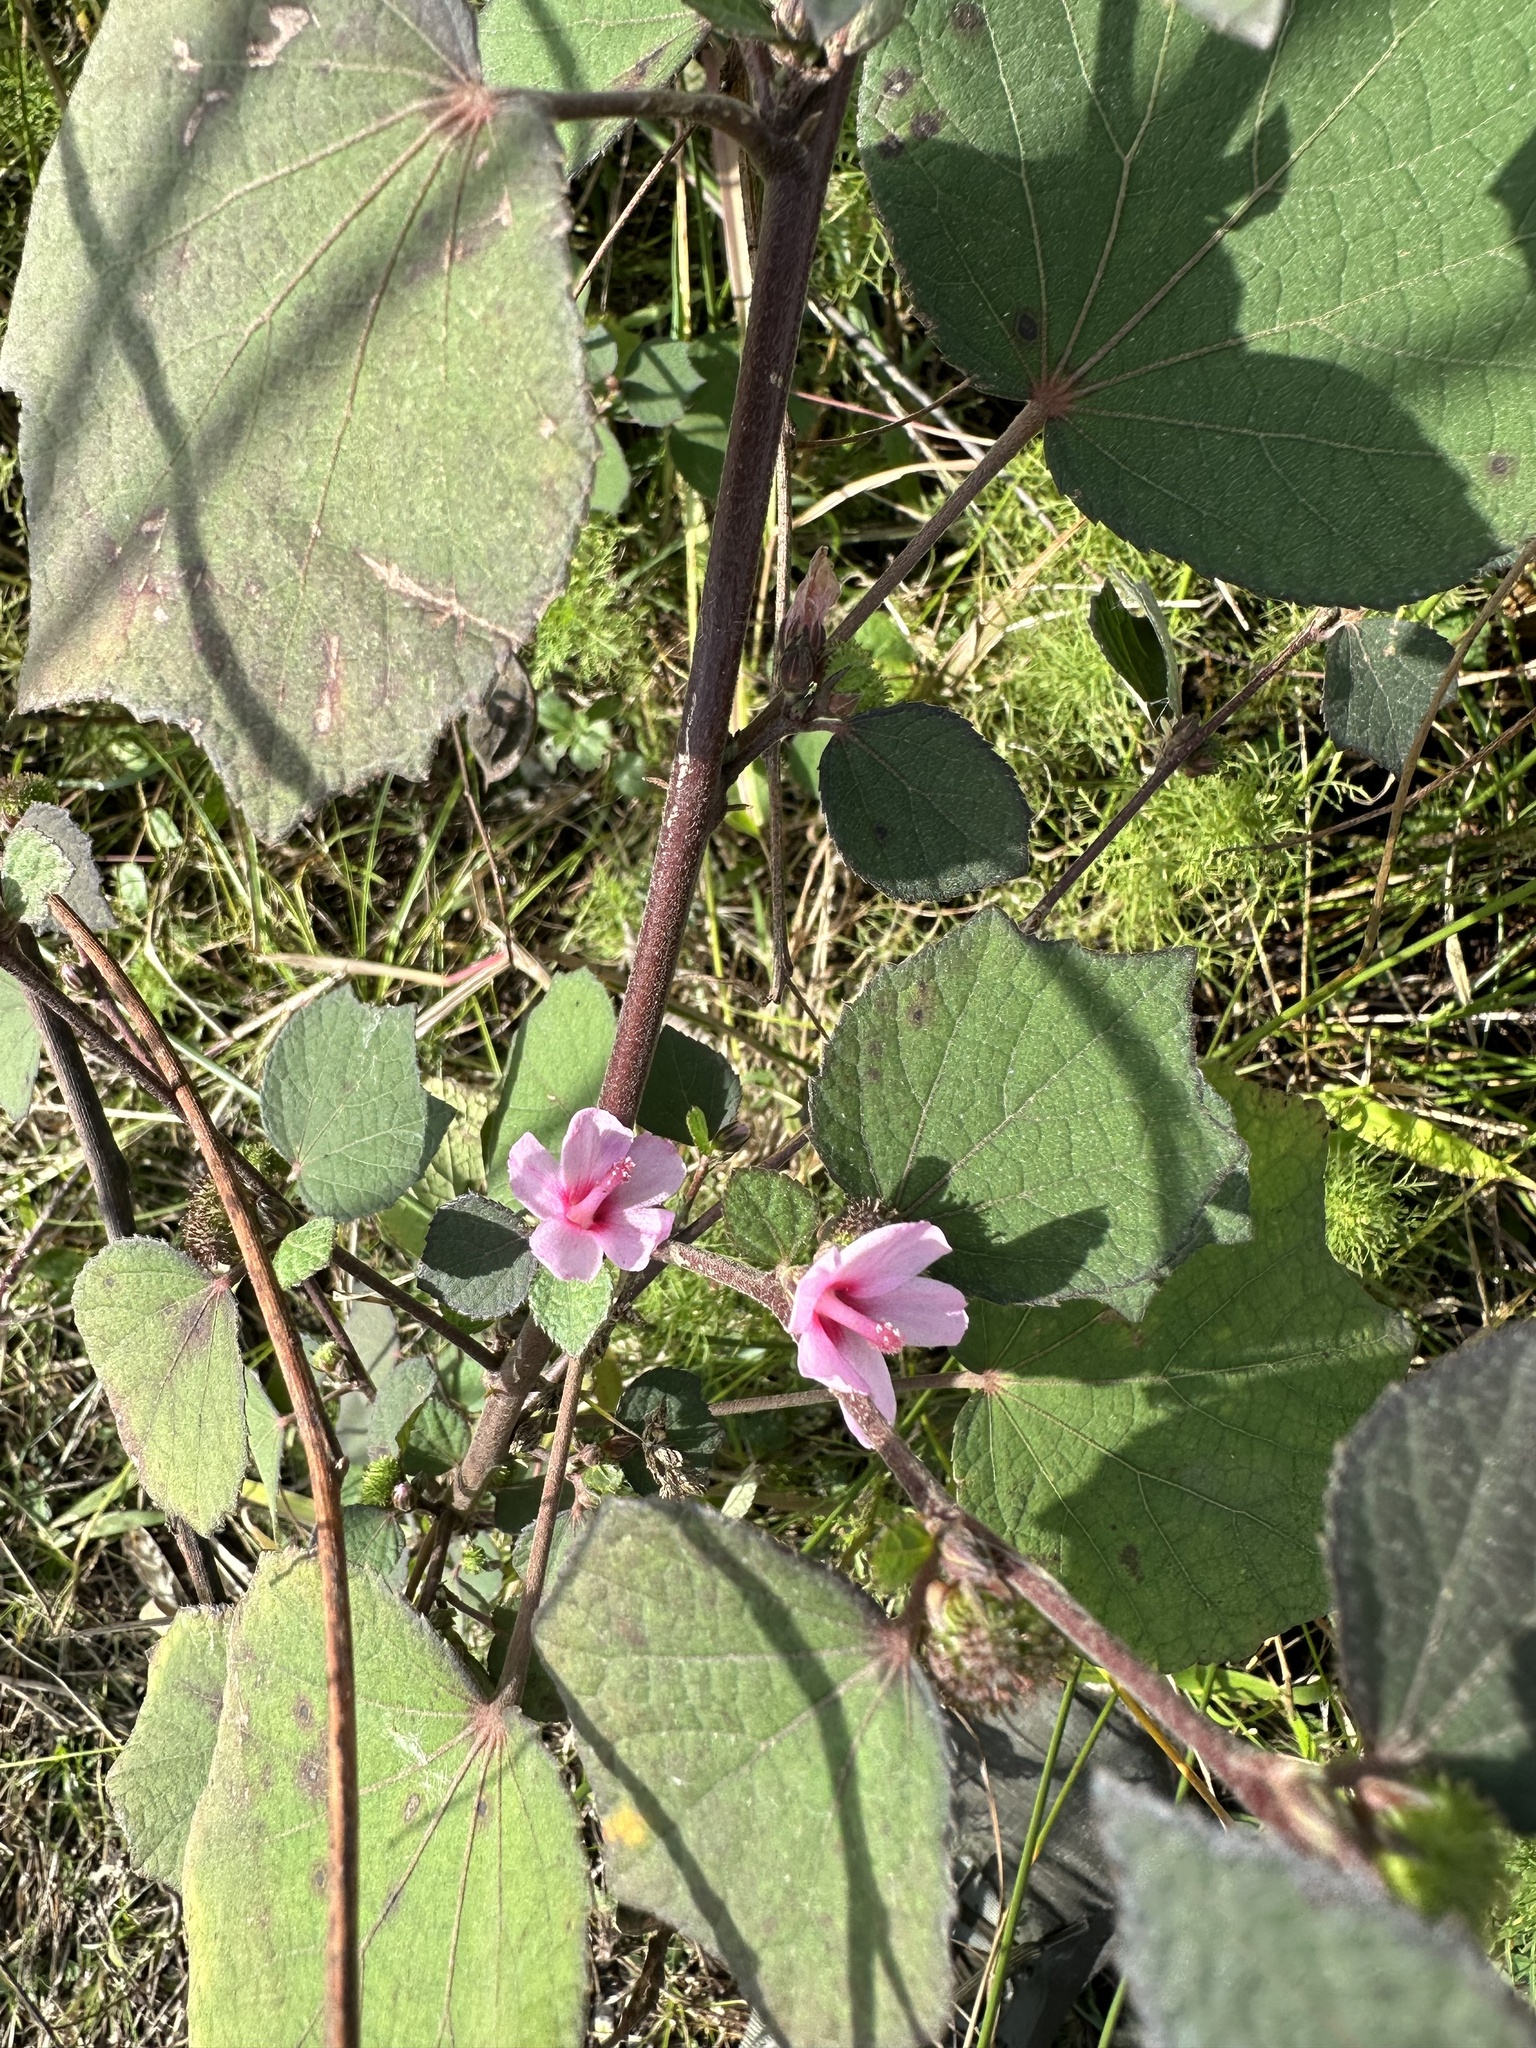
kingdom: Plantae
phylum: Tracheophyta
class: Magnoliopsida
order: Malvales
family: Malvaceae
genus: Urena
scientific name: Urena lobata
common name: Caesarweed
